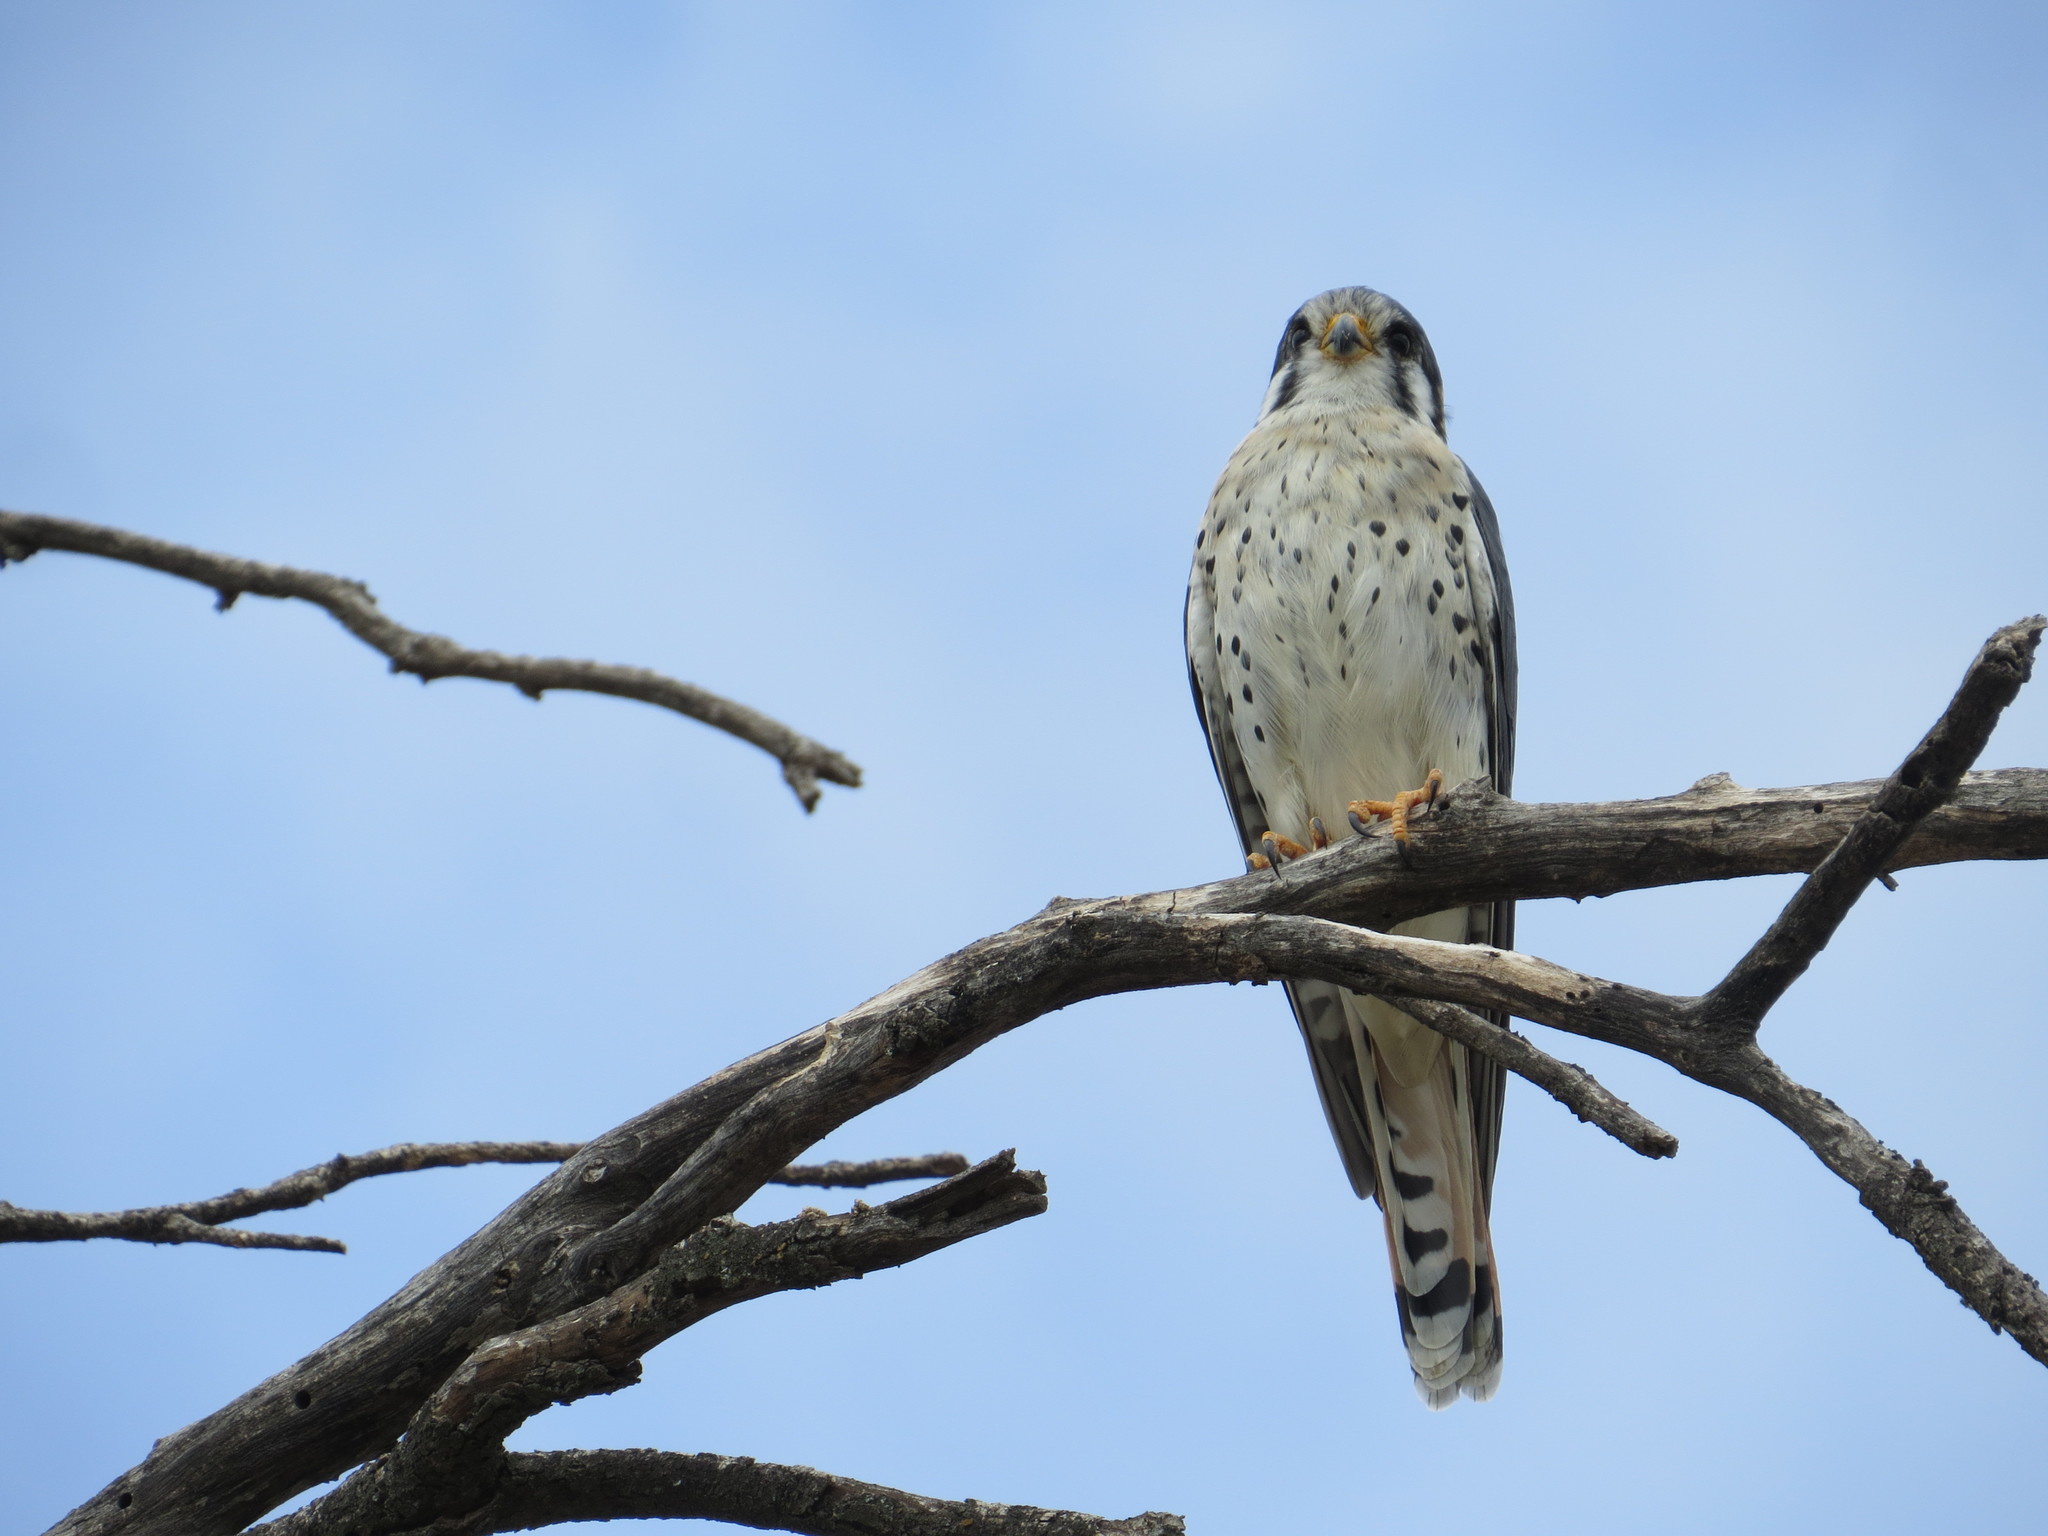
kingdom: Animalia
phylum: Chordata
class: Aves
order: Falconiformes
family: Falconidae
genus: Falco
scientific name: Falco sparverius
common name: American kestrel
